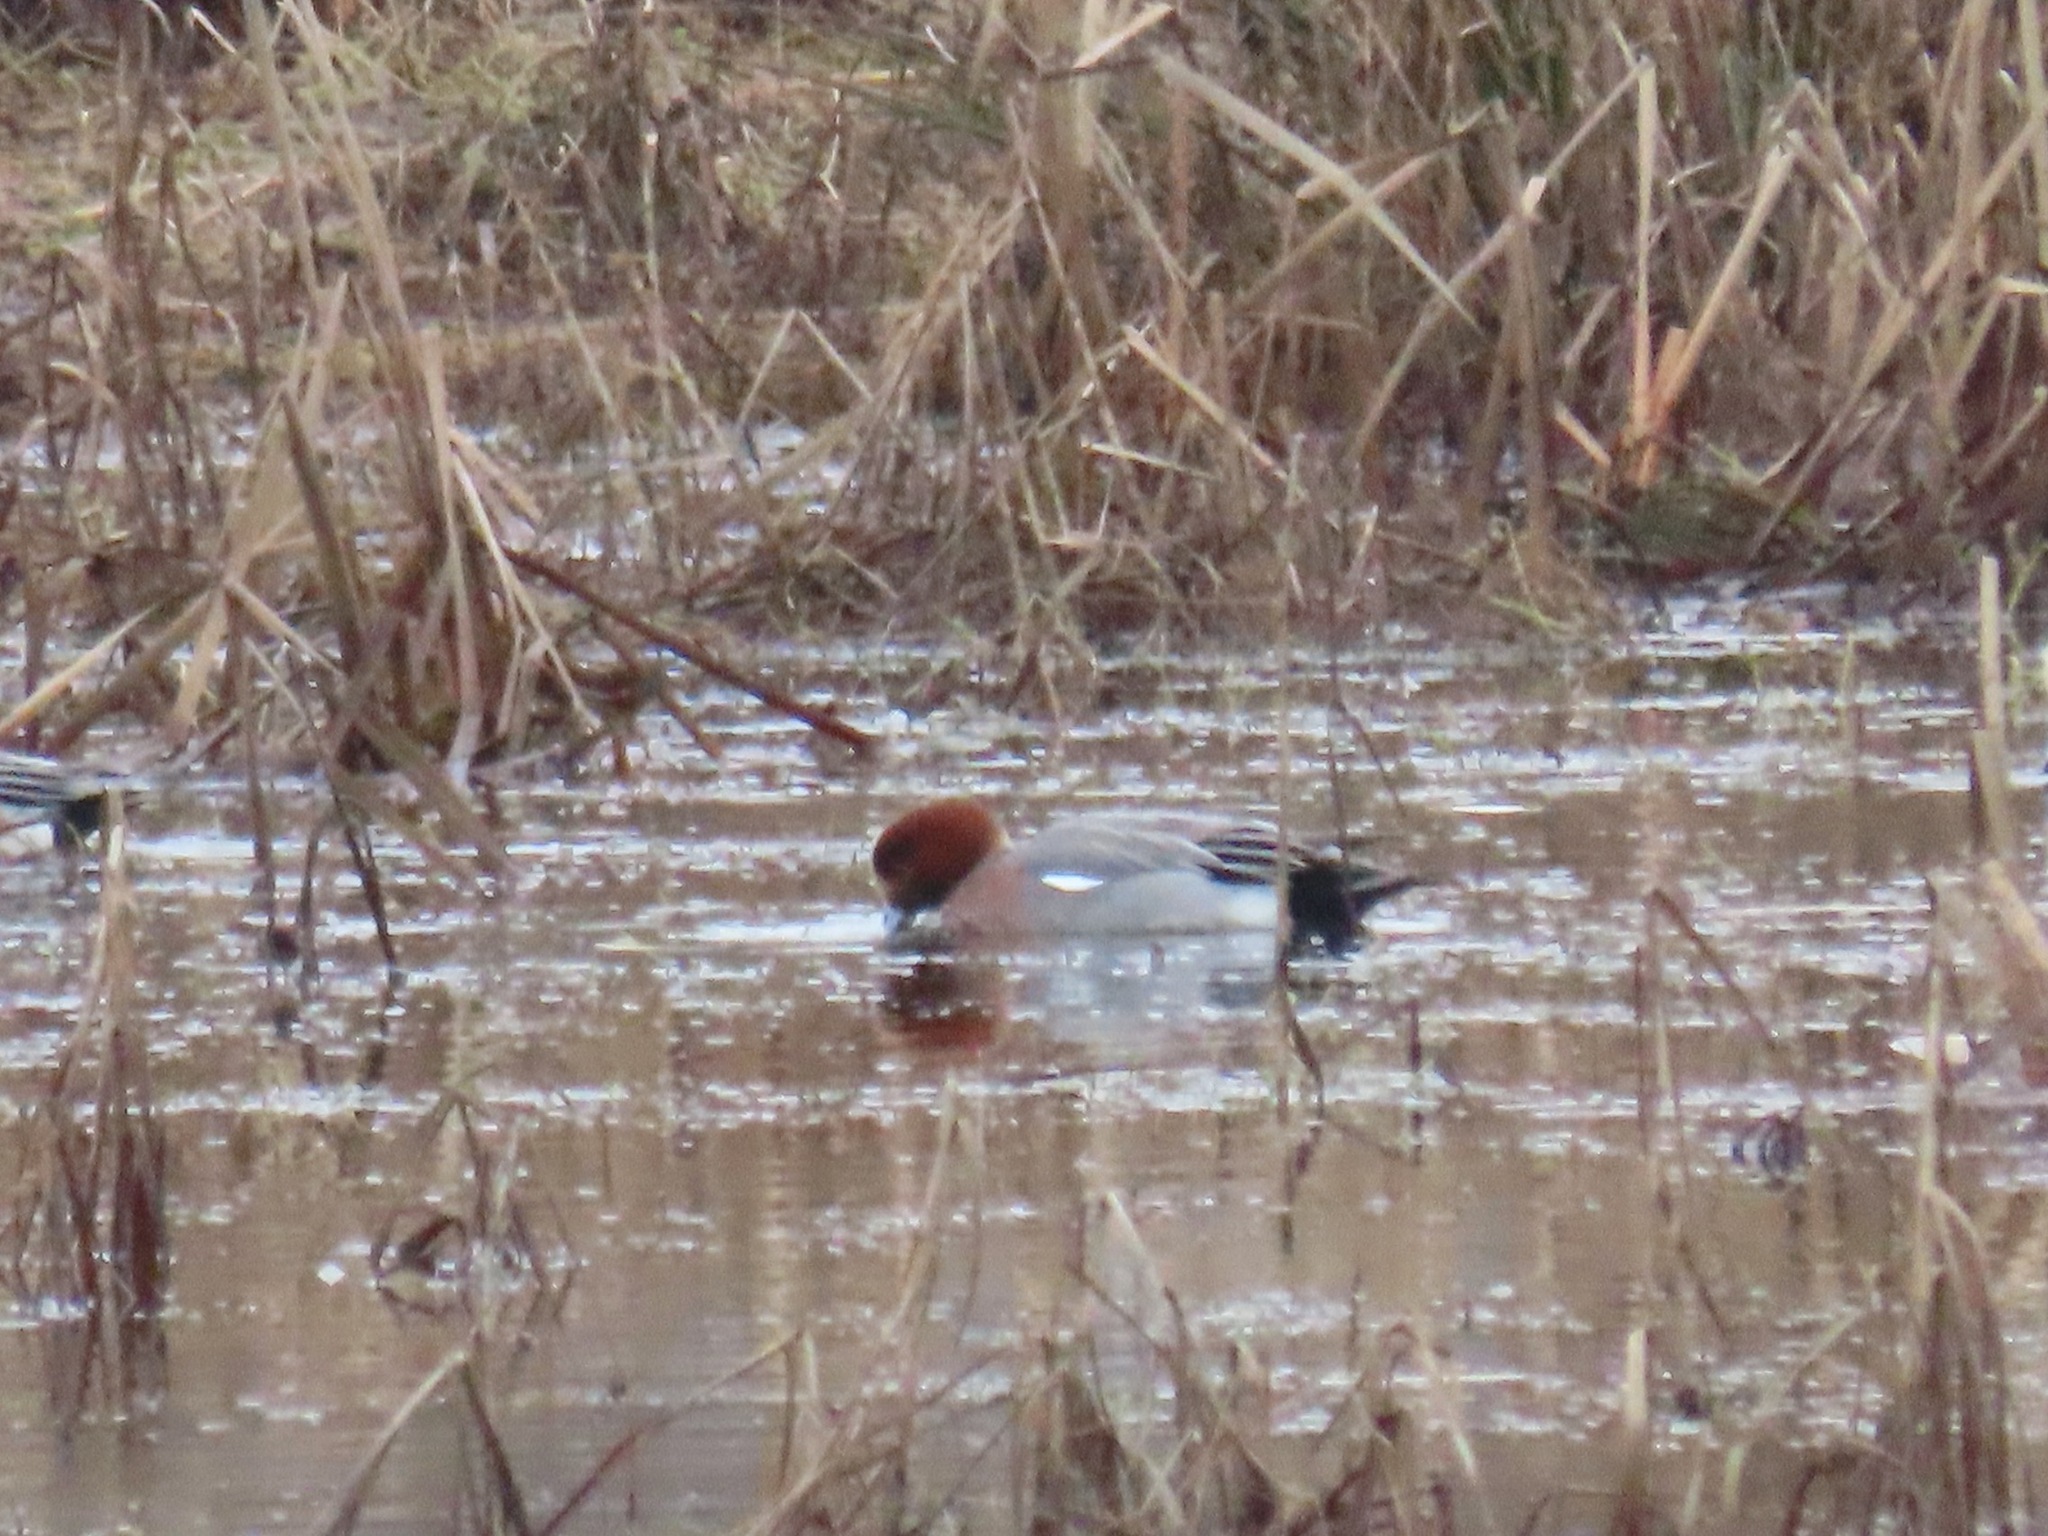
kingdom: Animalia
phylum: Chordata
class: Aves
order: Anseriformes
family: Anatidae
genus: Mareca
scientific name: Mareca penelope
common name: Eurasian wigeon
